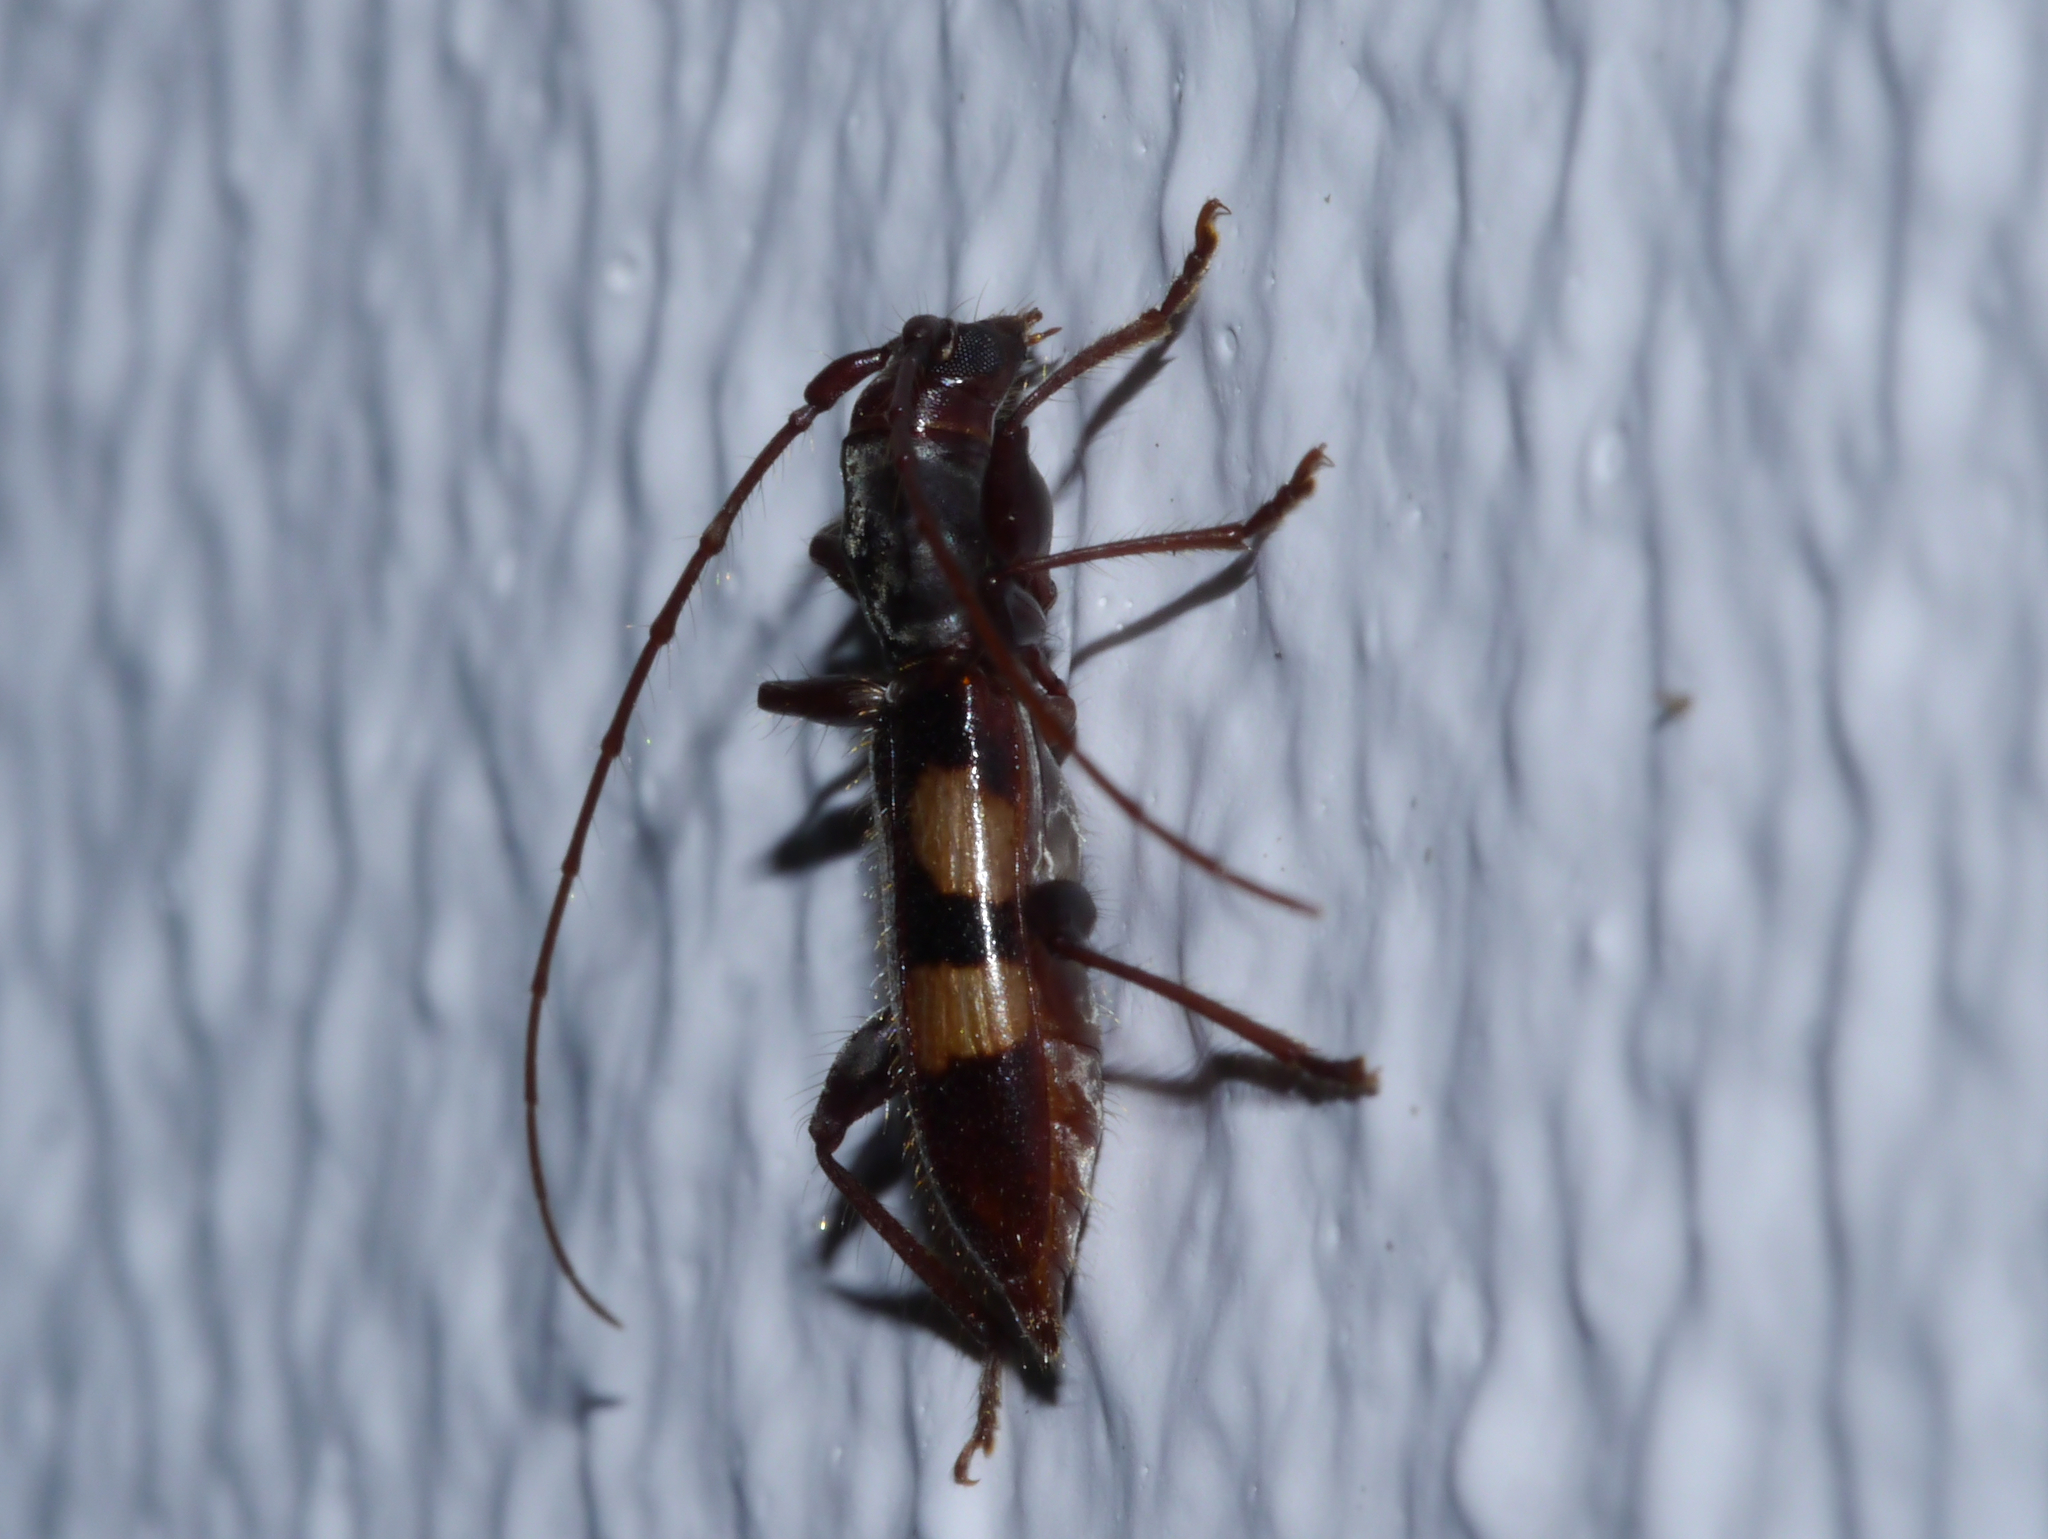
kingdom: Animalia
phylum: Arthropoda
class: Insecta
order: Coleoptera
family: Cerambycidae
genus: Heterachthes
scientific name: Heterachthes wappesi
